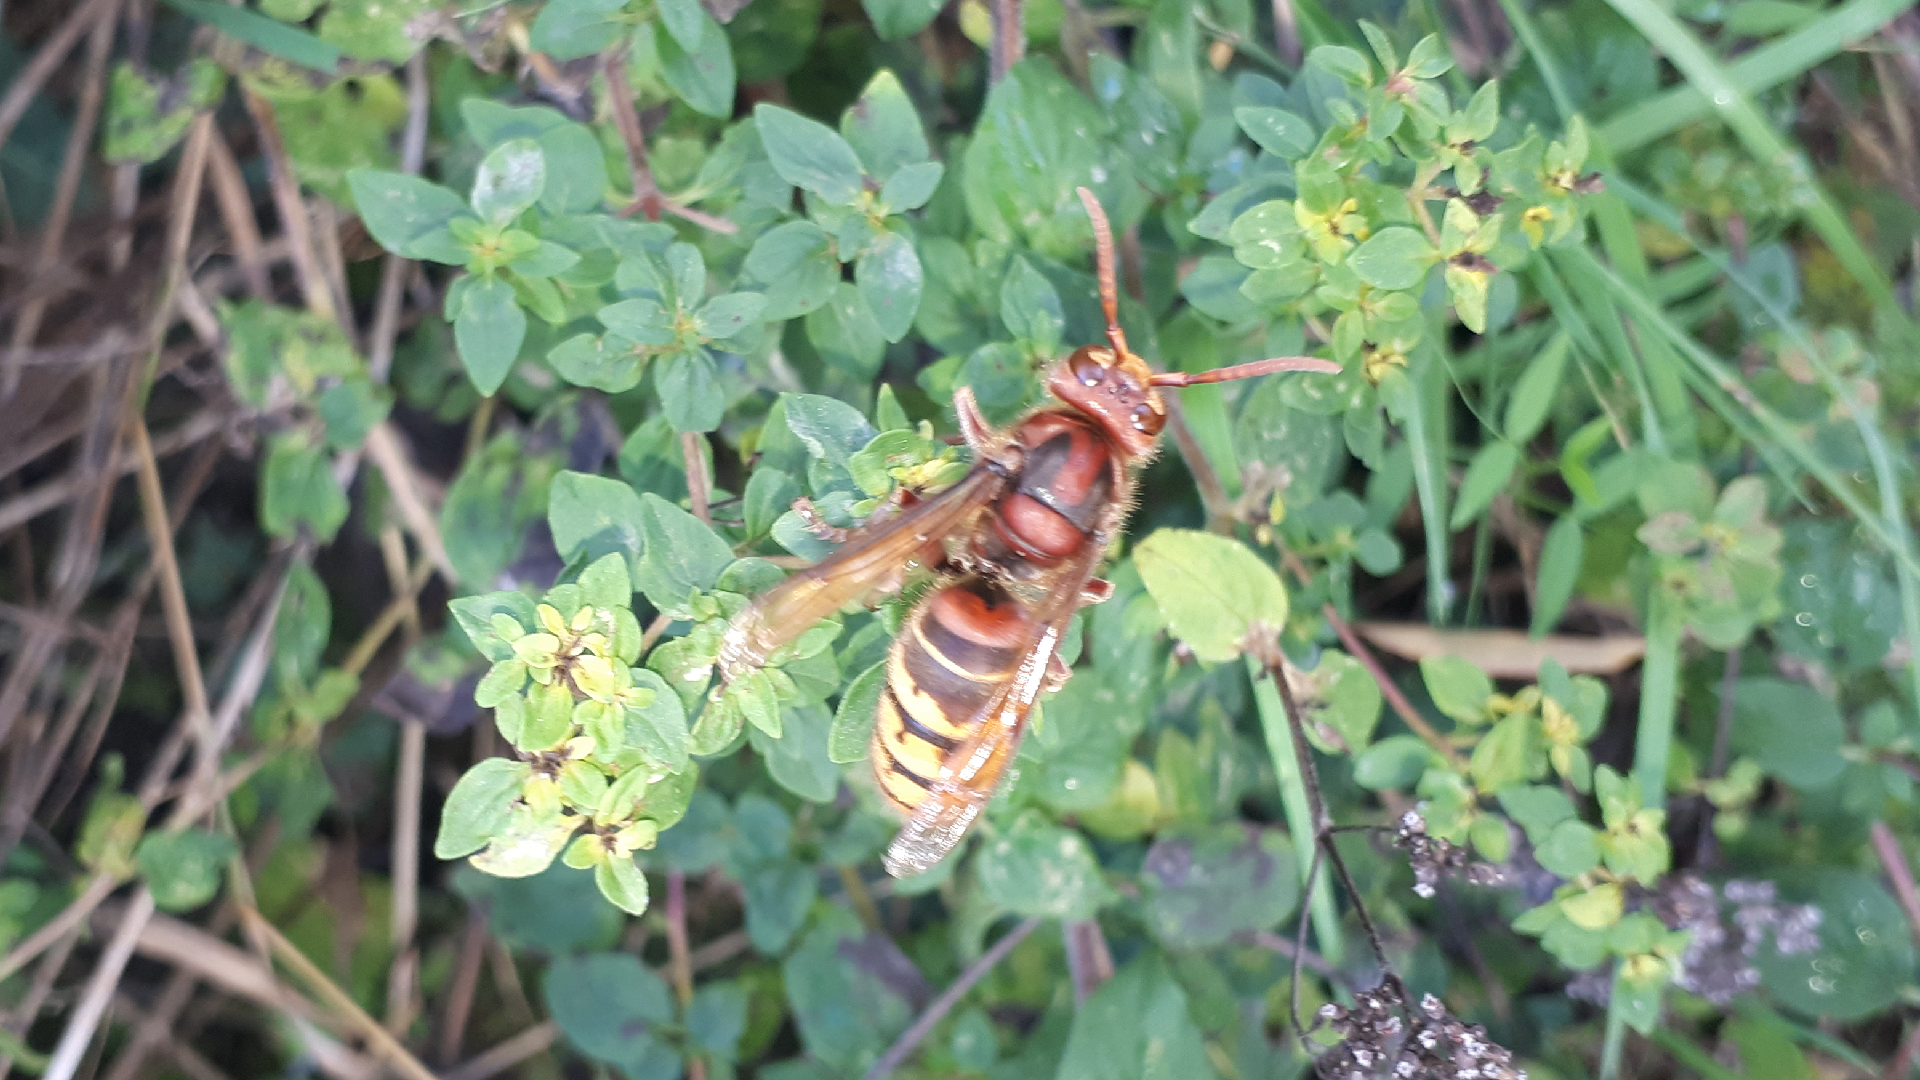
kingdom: Animalia
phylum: Arthropoda
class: Insecta
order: Hymenoptera
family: Vespidae
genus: Vespa
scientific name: Vespa crabro
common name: Hornet
